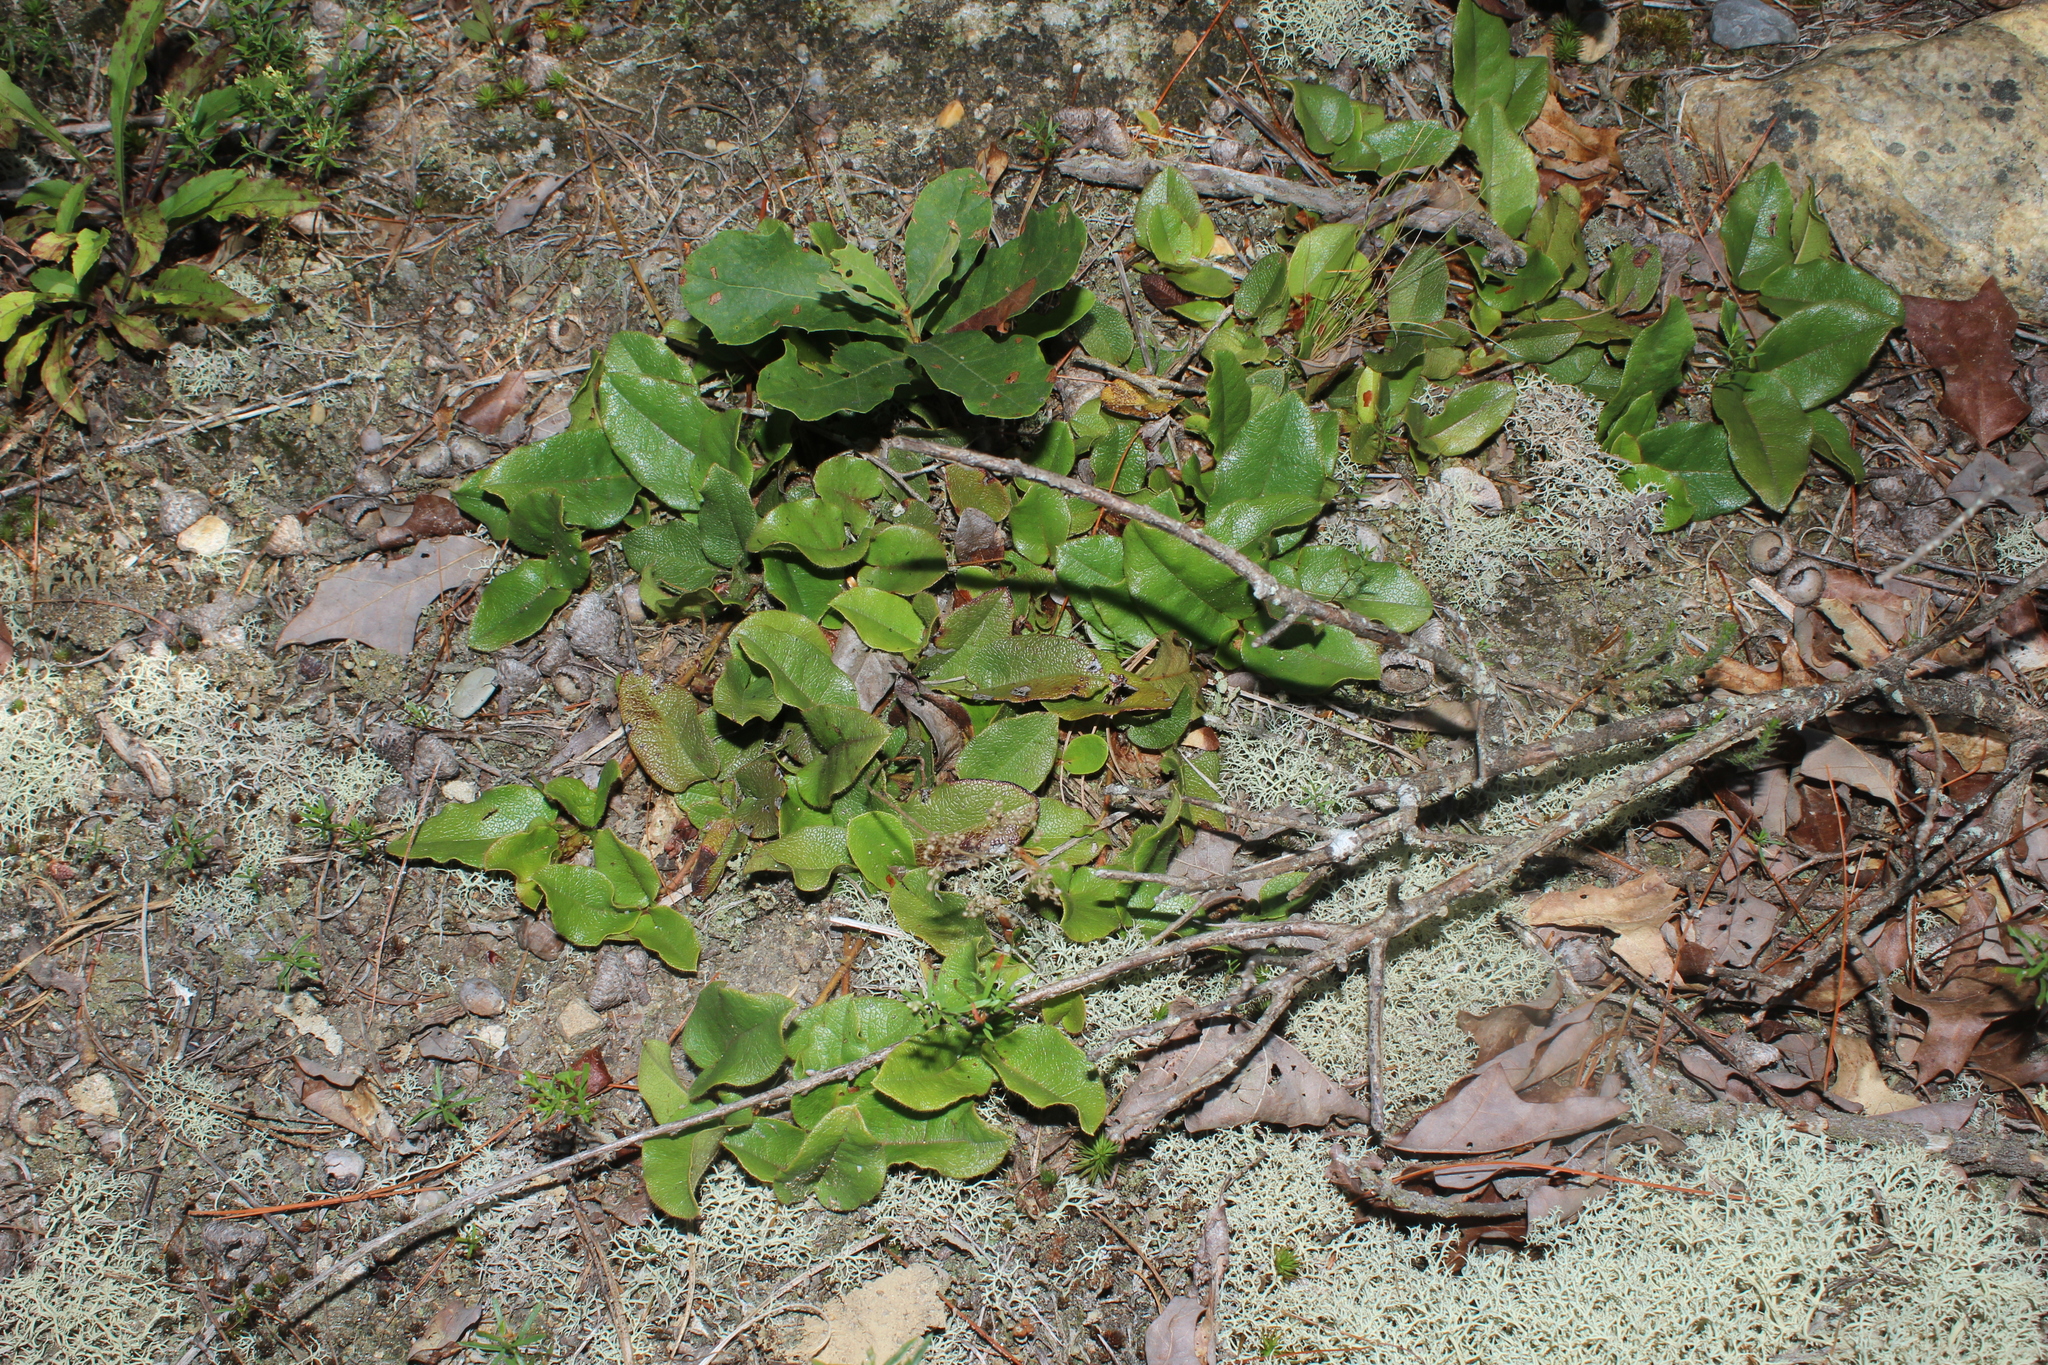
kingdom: Plantae
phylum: Tracheophyta
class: Magnoliopsida
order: Ericales
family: Ericaceae
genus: Epigaea
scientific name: Epigaea repens
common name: Gravelroot
